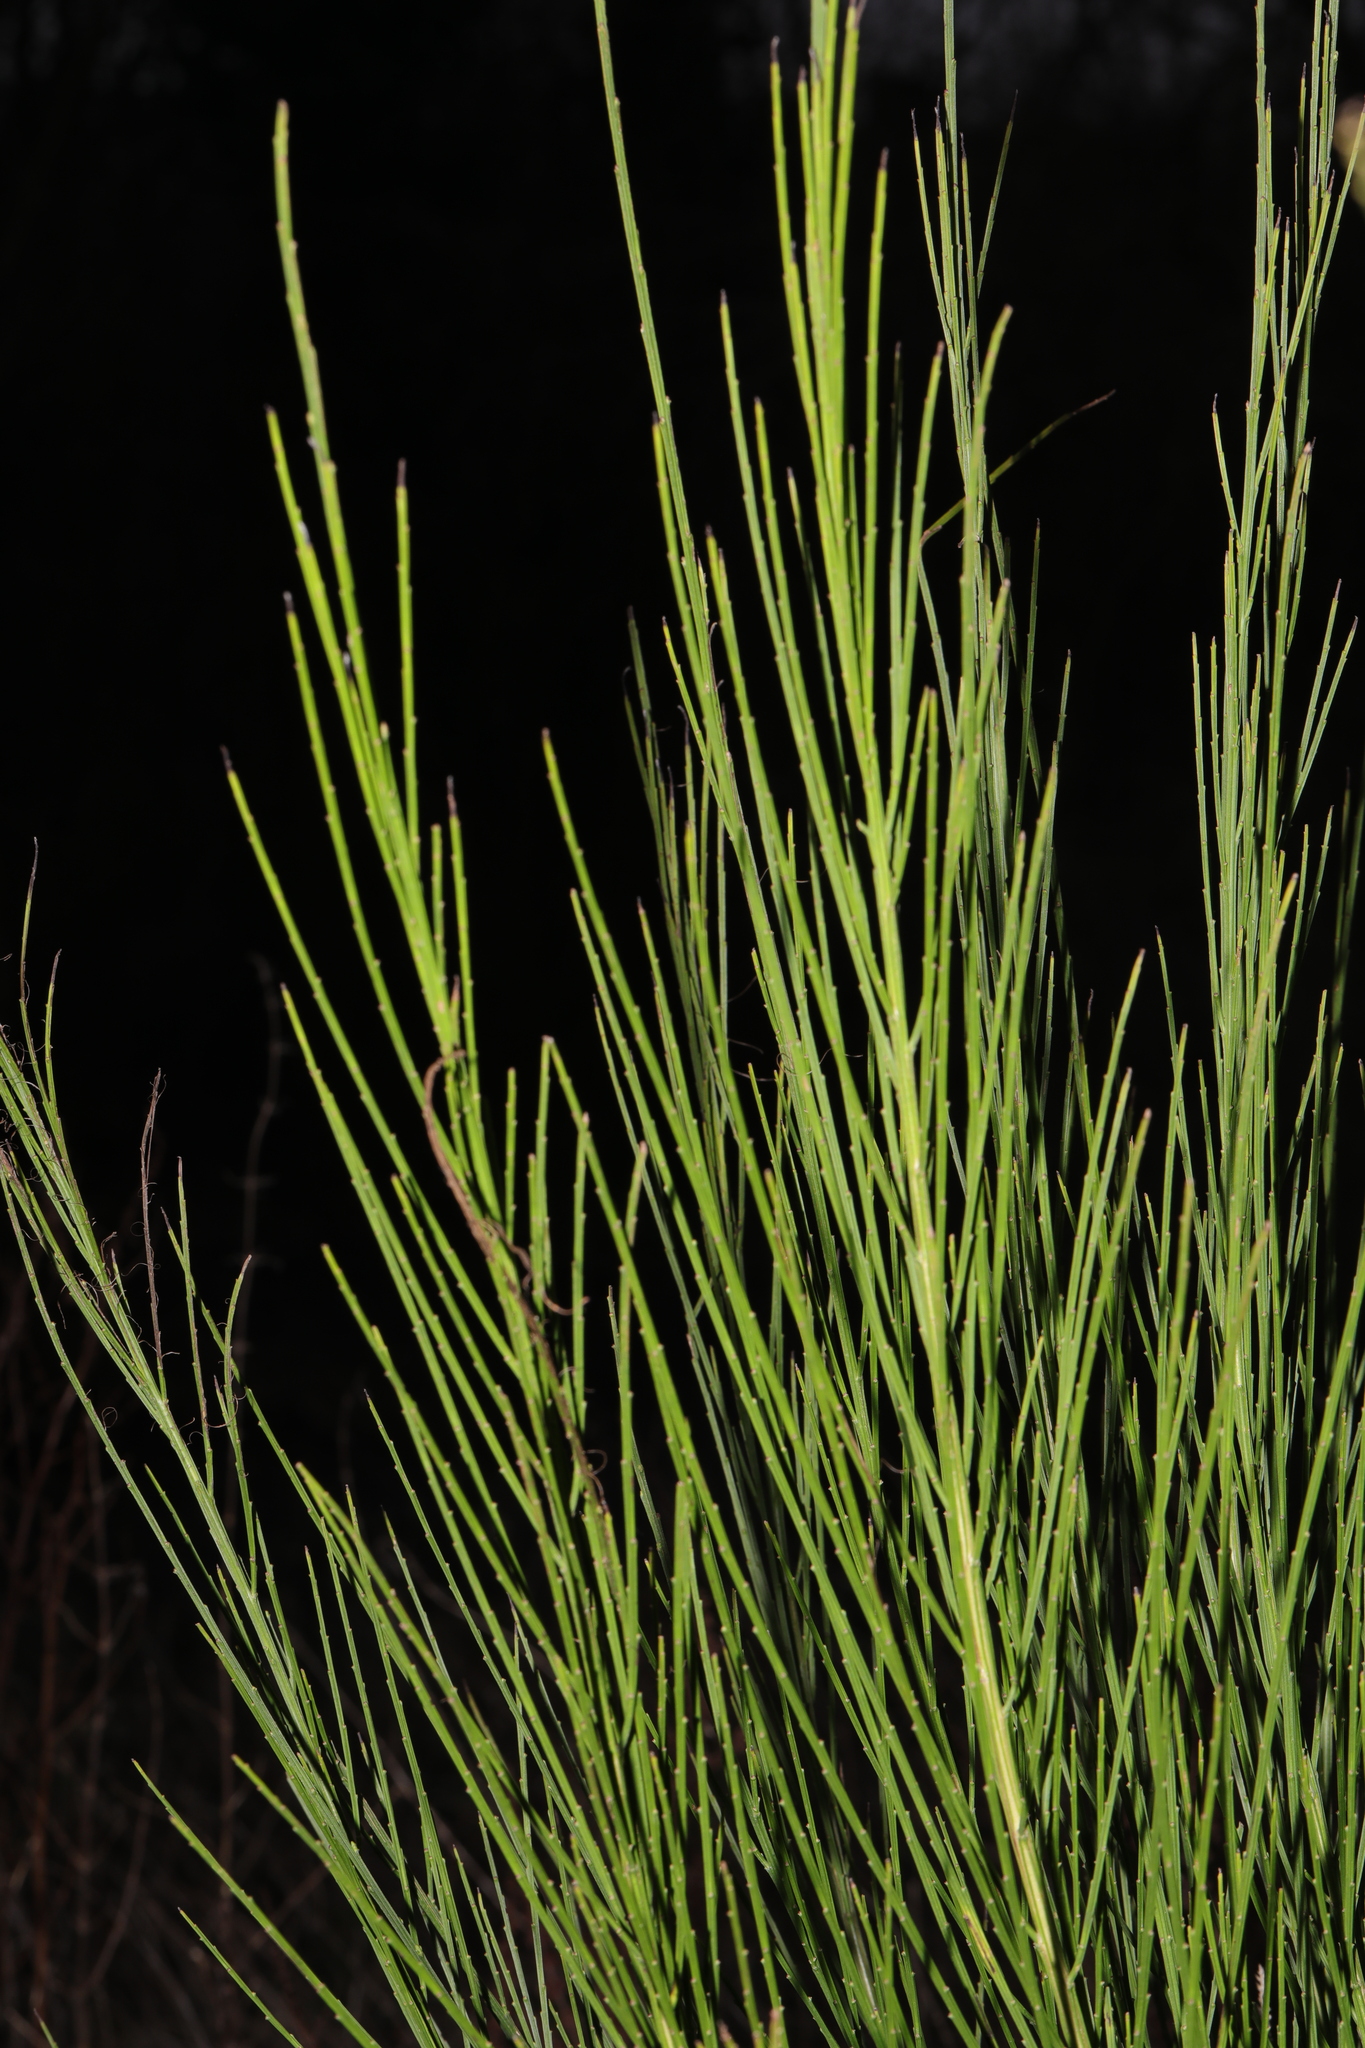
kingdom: Plantae
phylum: Tracheophyta
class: Magnoliopsida
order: Fabales
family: Fabaceae
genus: Cytisus
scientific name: Cytisus scoparius
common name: Scotch broom
